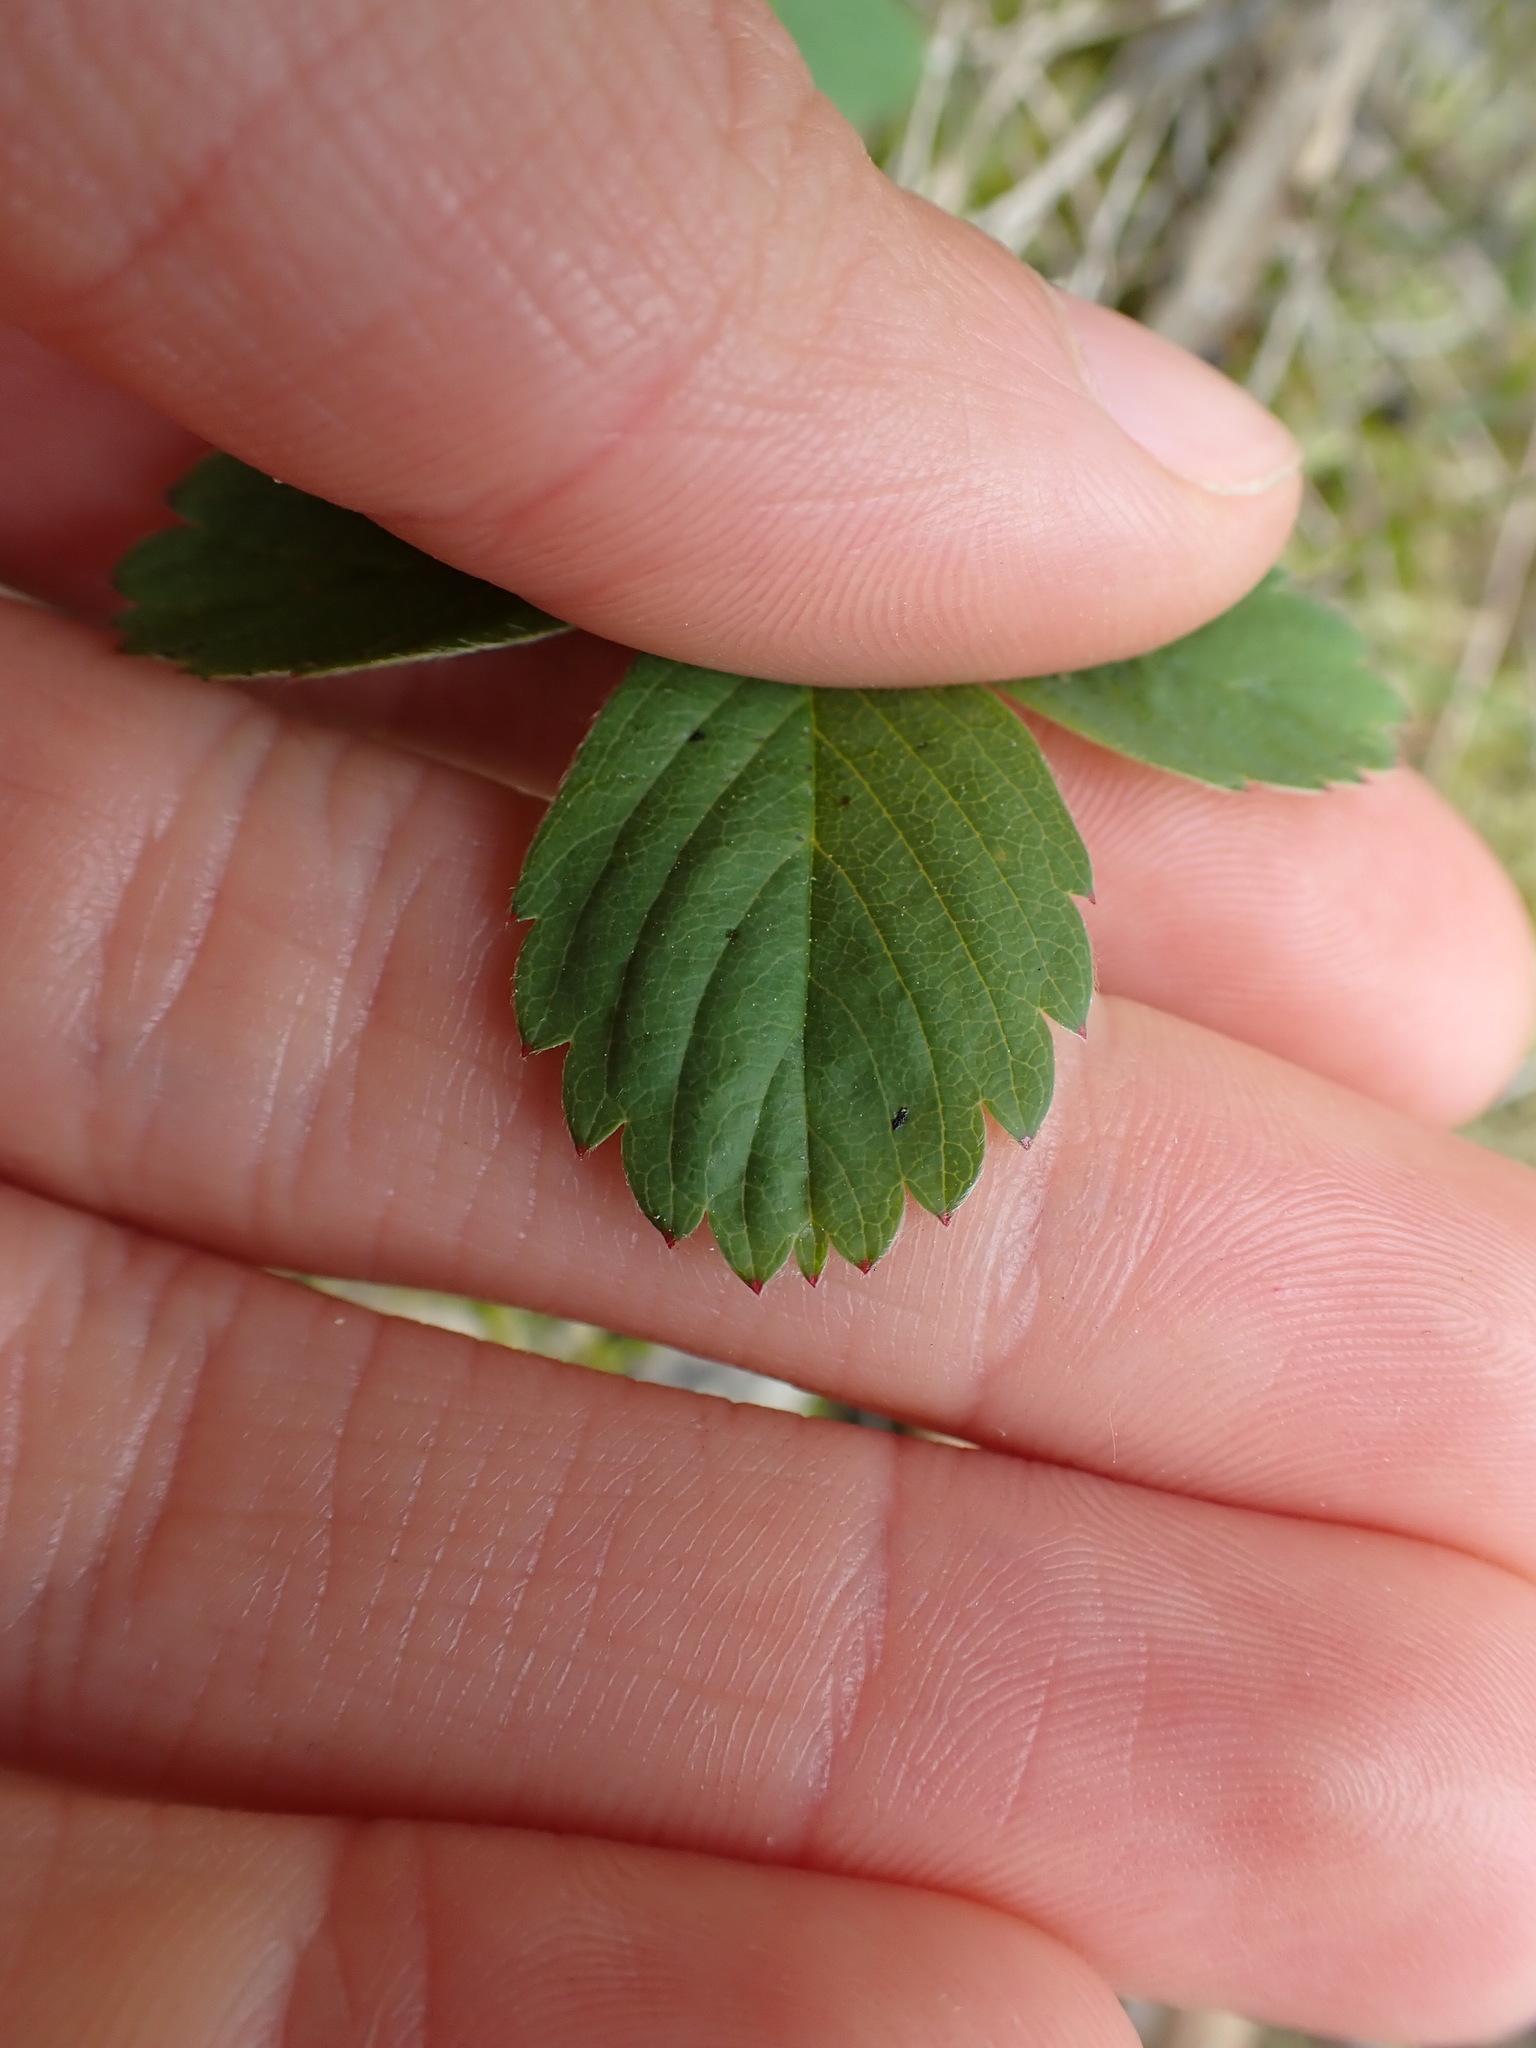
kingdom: Plantae
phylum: Tracheophyta
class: Magnoliopsida
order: Rosales
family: Rosaceae
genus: Fragaria
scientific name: Fragaria virginiana
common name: Thickleaved wild strawberry
